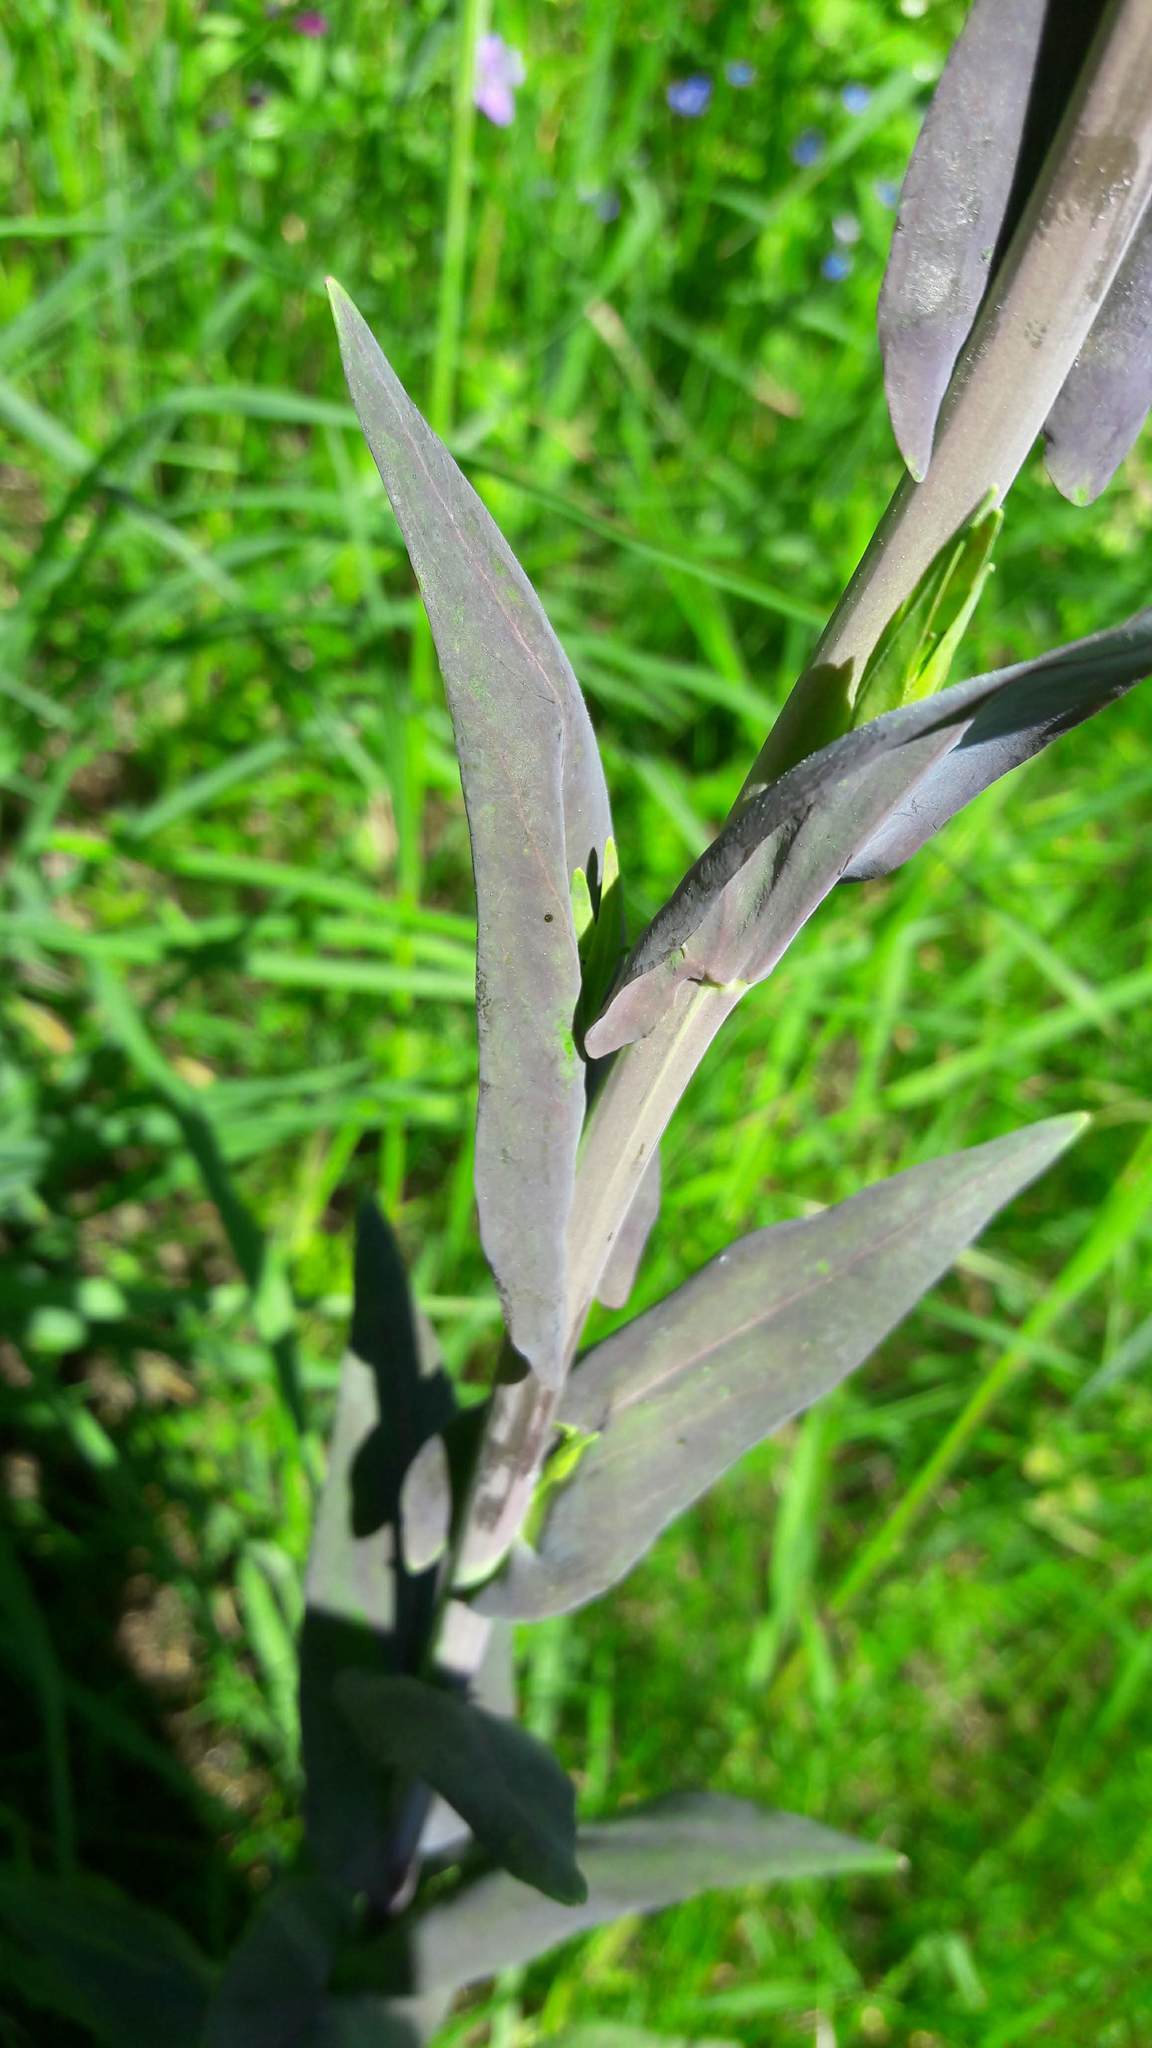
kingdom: Plantae
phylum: Tracheophyta
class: Magnoliopsida
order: Brassicales
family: Brassicaceae
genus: Turritis
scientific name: Turritis glabra
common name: Tower rockcress
